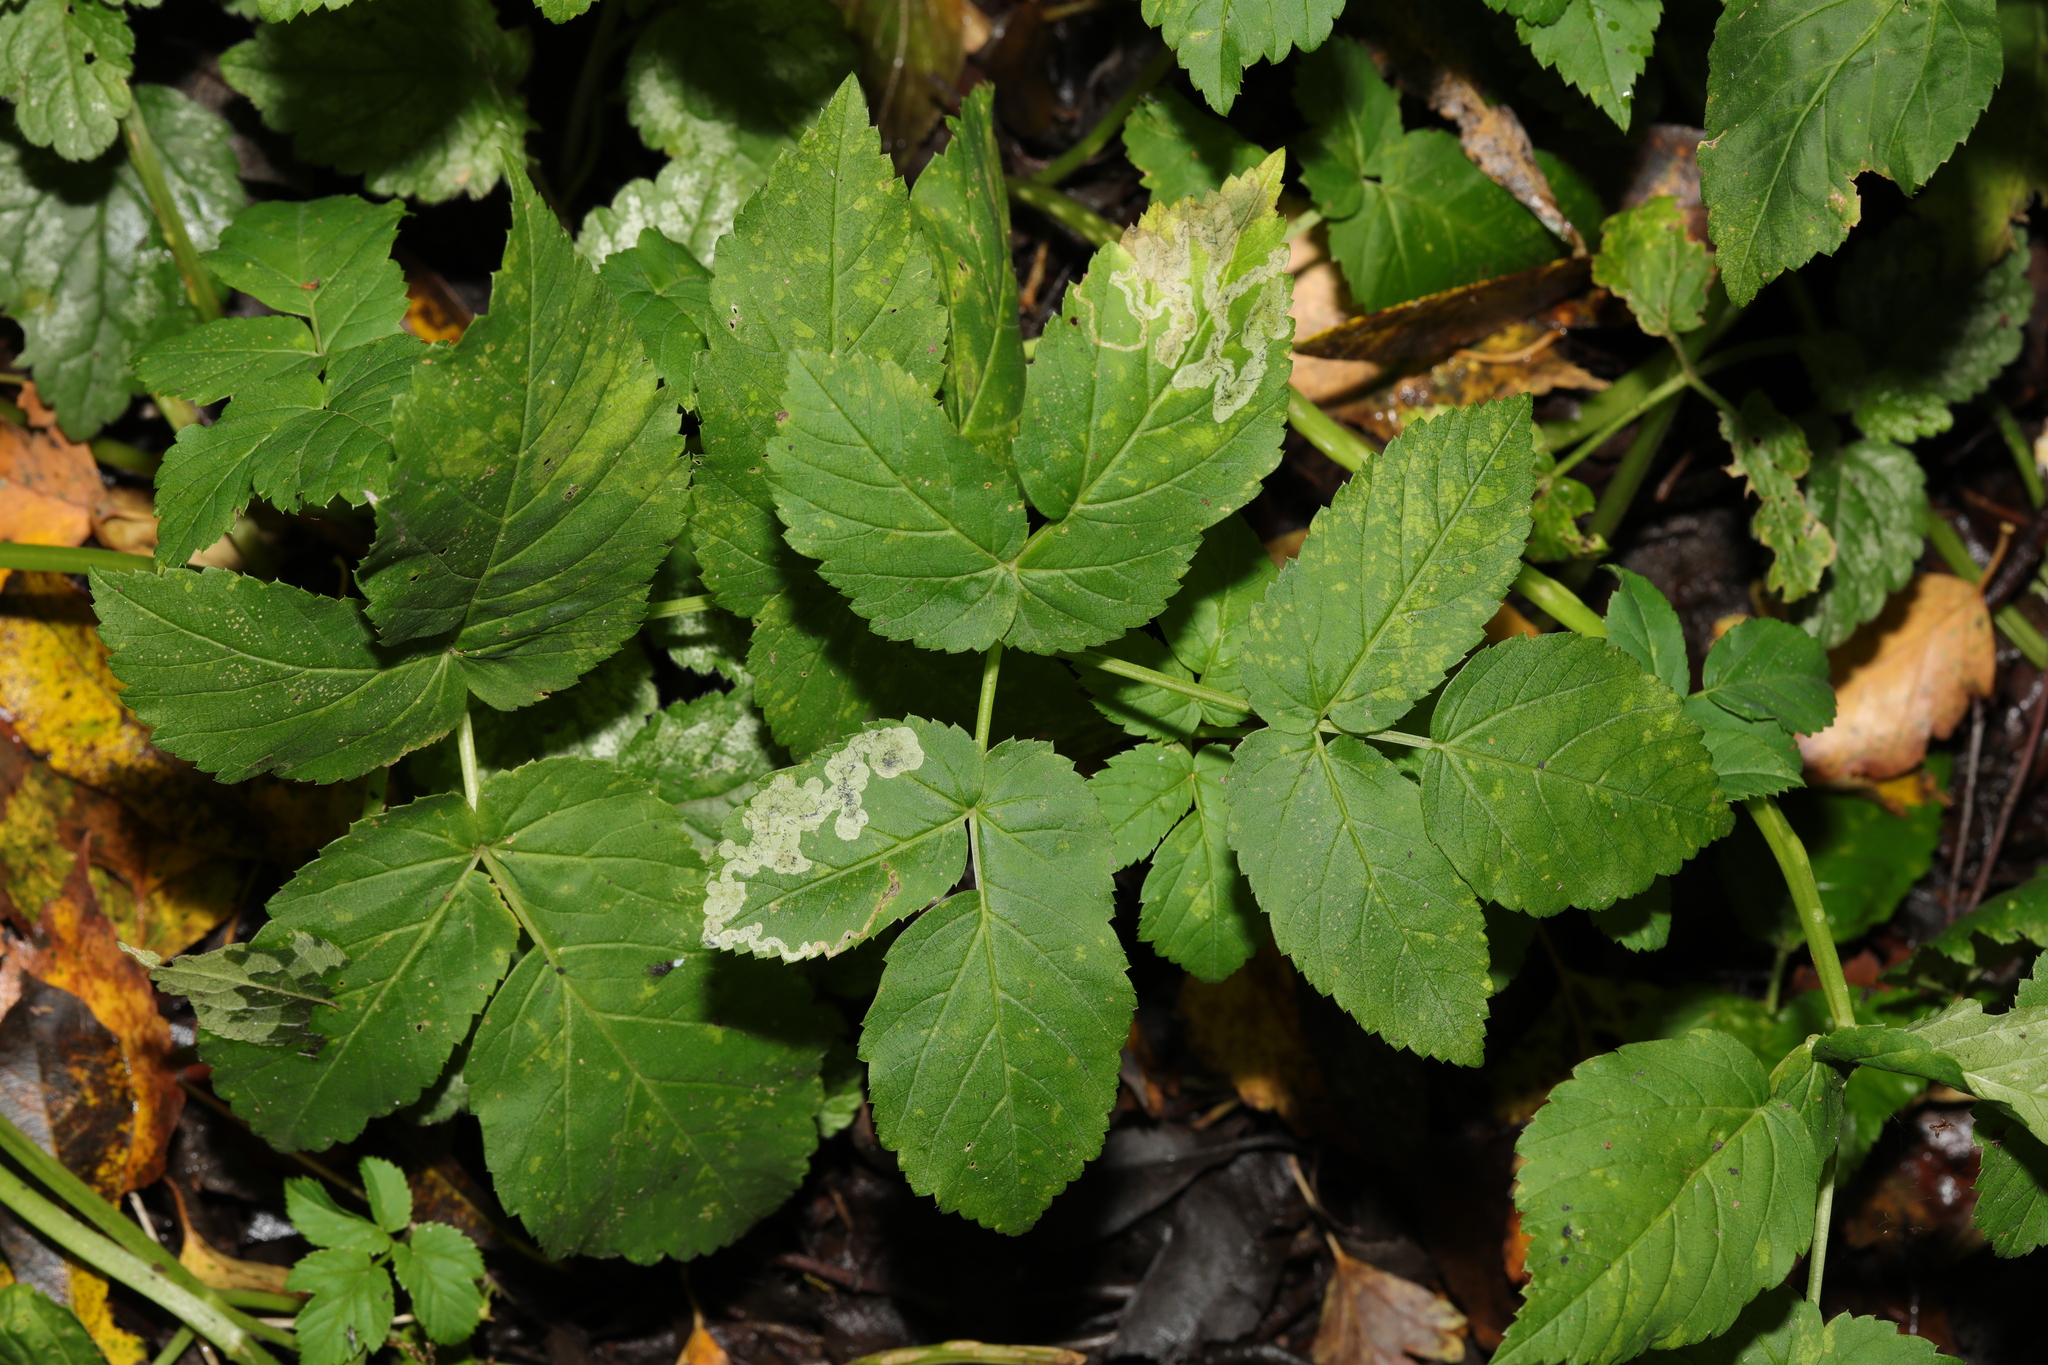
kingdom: Plantae
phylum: Tracheophyta
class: Magnoliopsida
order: Apiales
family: Apiaceae
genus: Aegopodium
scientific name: Aegopodium podagraria
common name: Ground-elder
